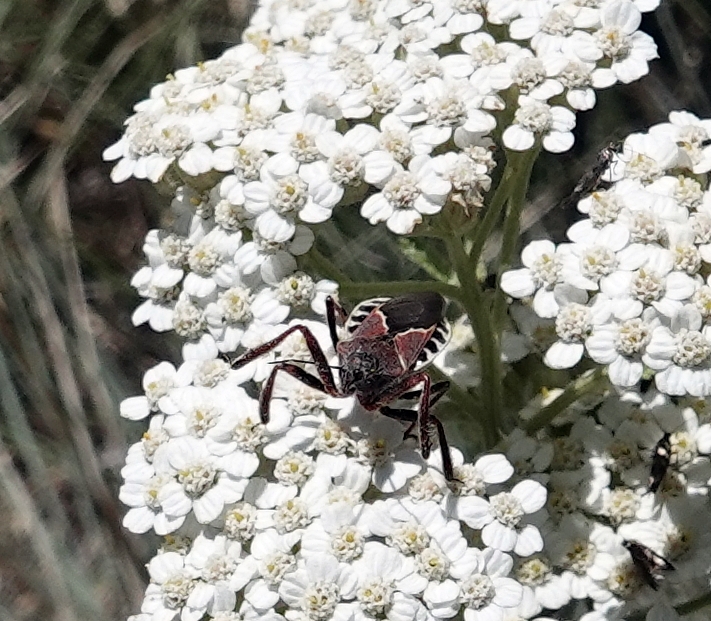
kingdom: Animalia
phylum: Arthropoda
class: Insecta
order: Hemiptera
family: Reduviidae
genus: Apiomerus
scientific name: Apiomerus spissipes
